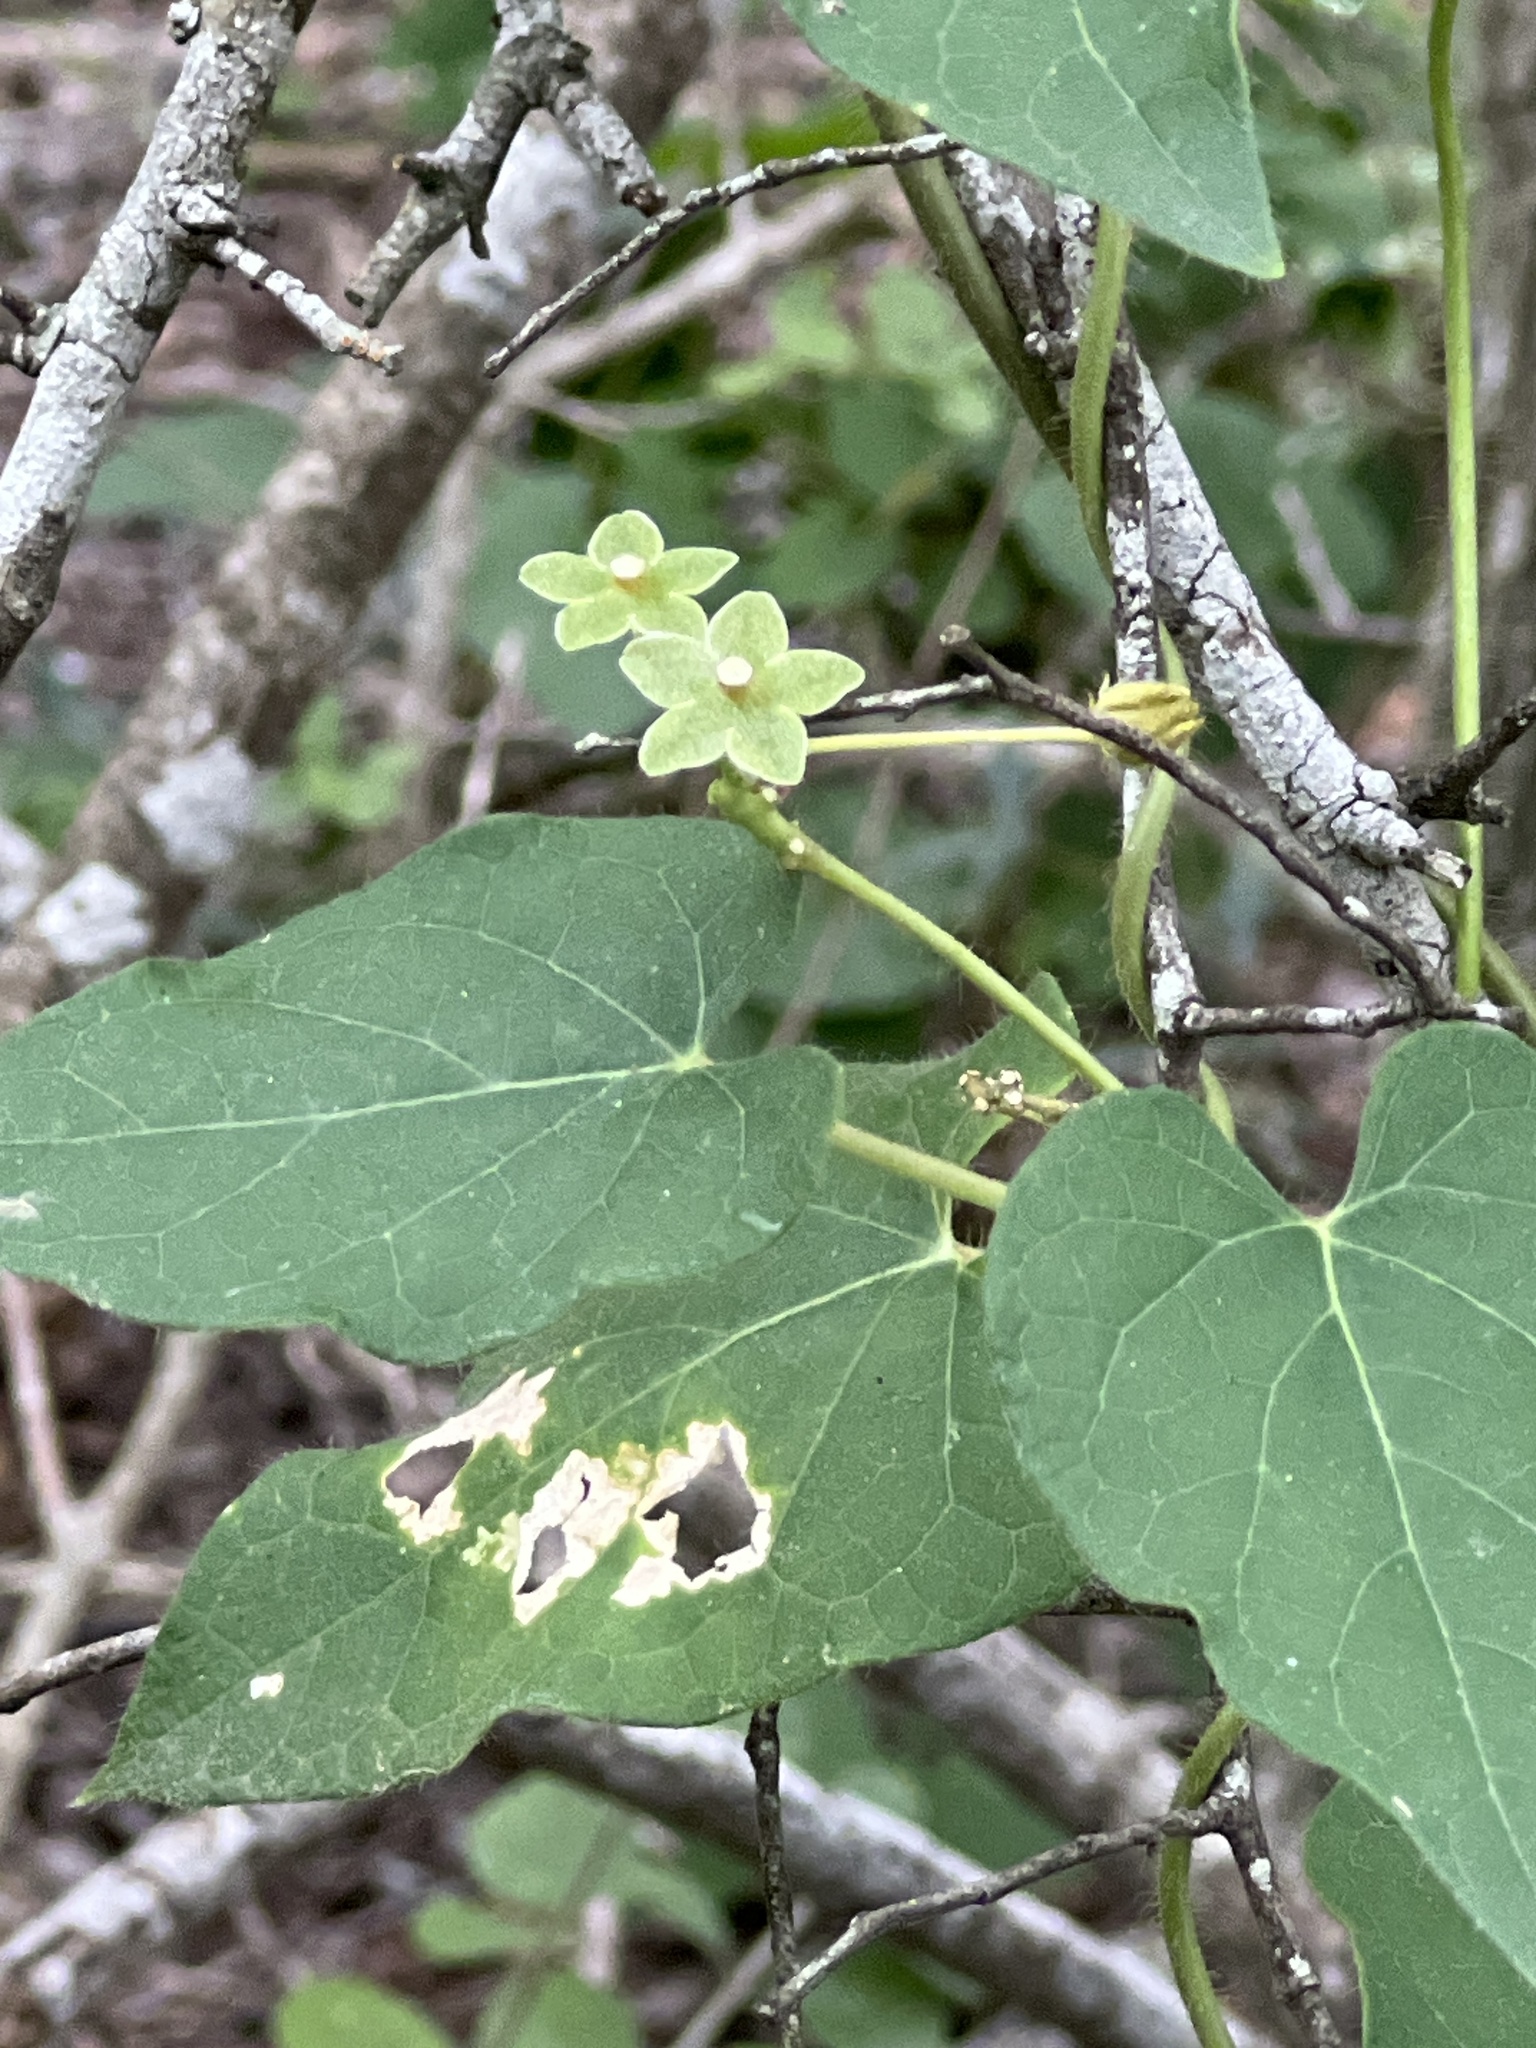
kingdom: Plantae
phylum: Tracheophyta
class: Magnoliopsida
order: Gentianales
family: Apocynaceae
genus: Dictyanthus
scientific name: Dictyanthus reticulatus
